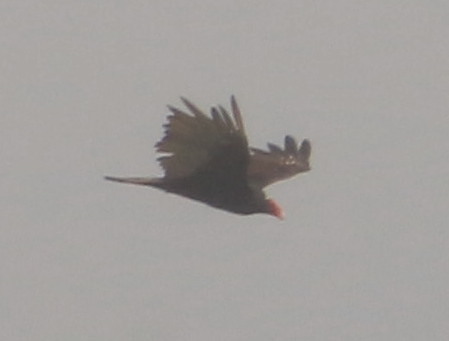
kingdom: Animalia
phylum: Chordata
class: Aves
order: Accipitriformes
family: Cathartidae
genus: Cathartes
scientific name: Cathartes aura
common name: Turkey vulture
